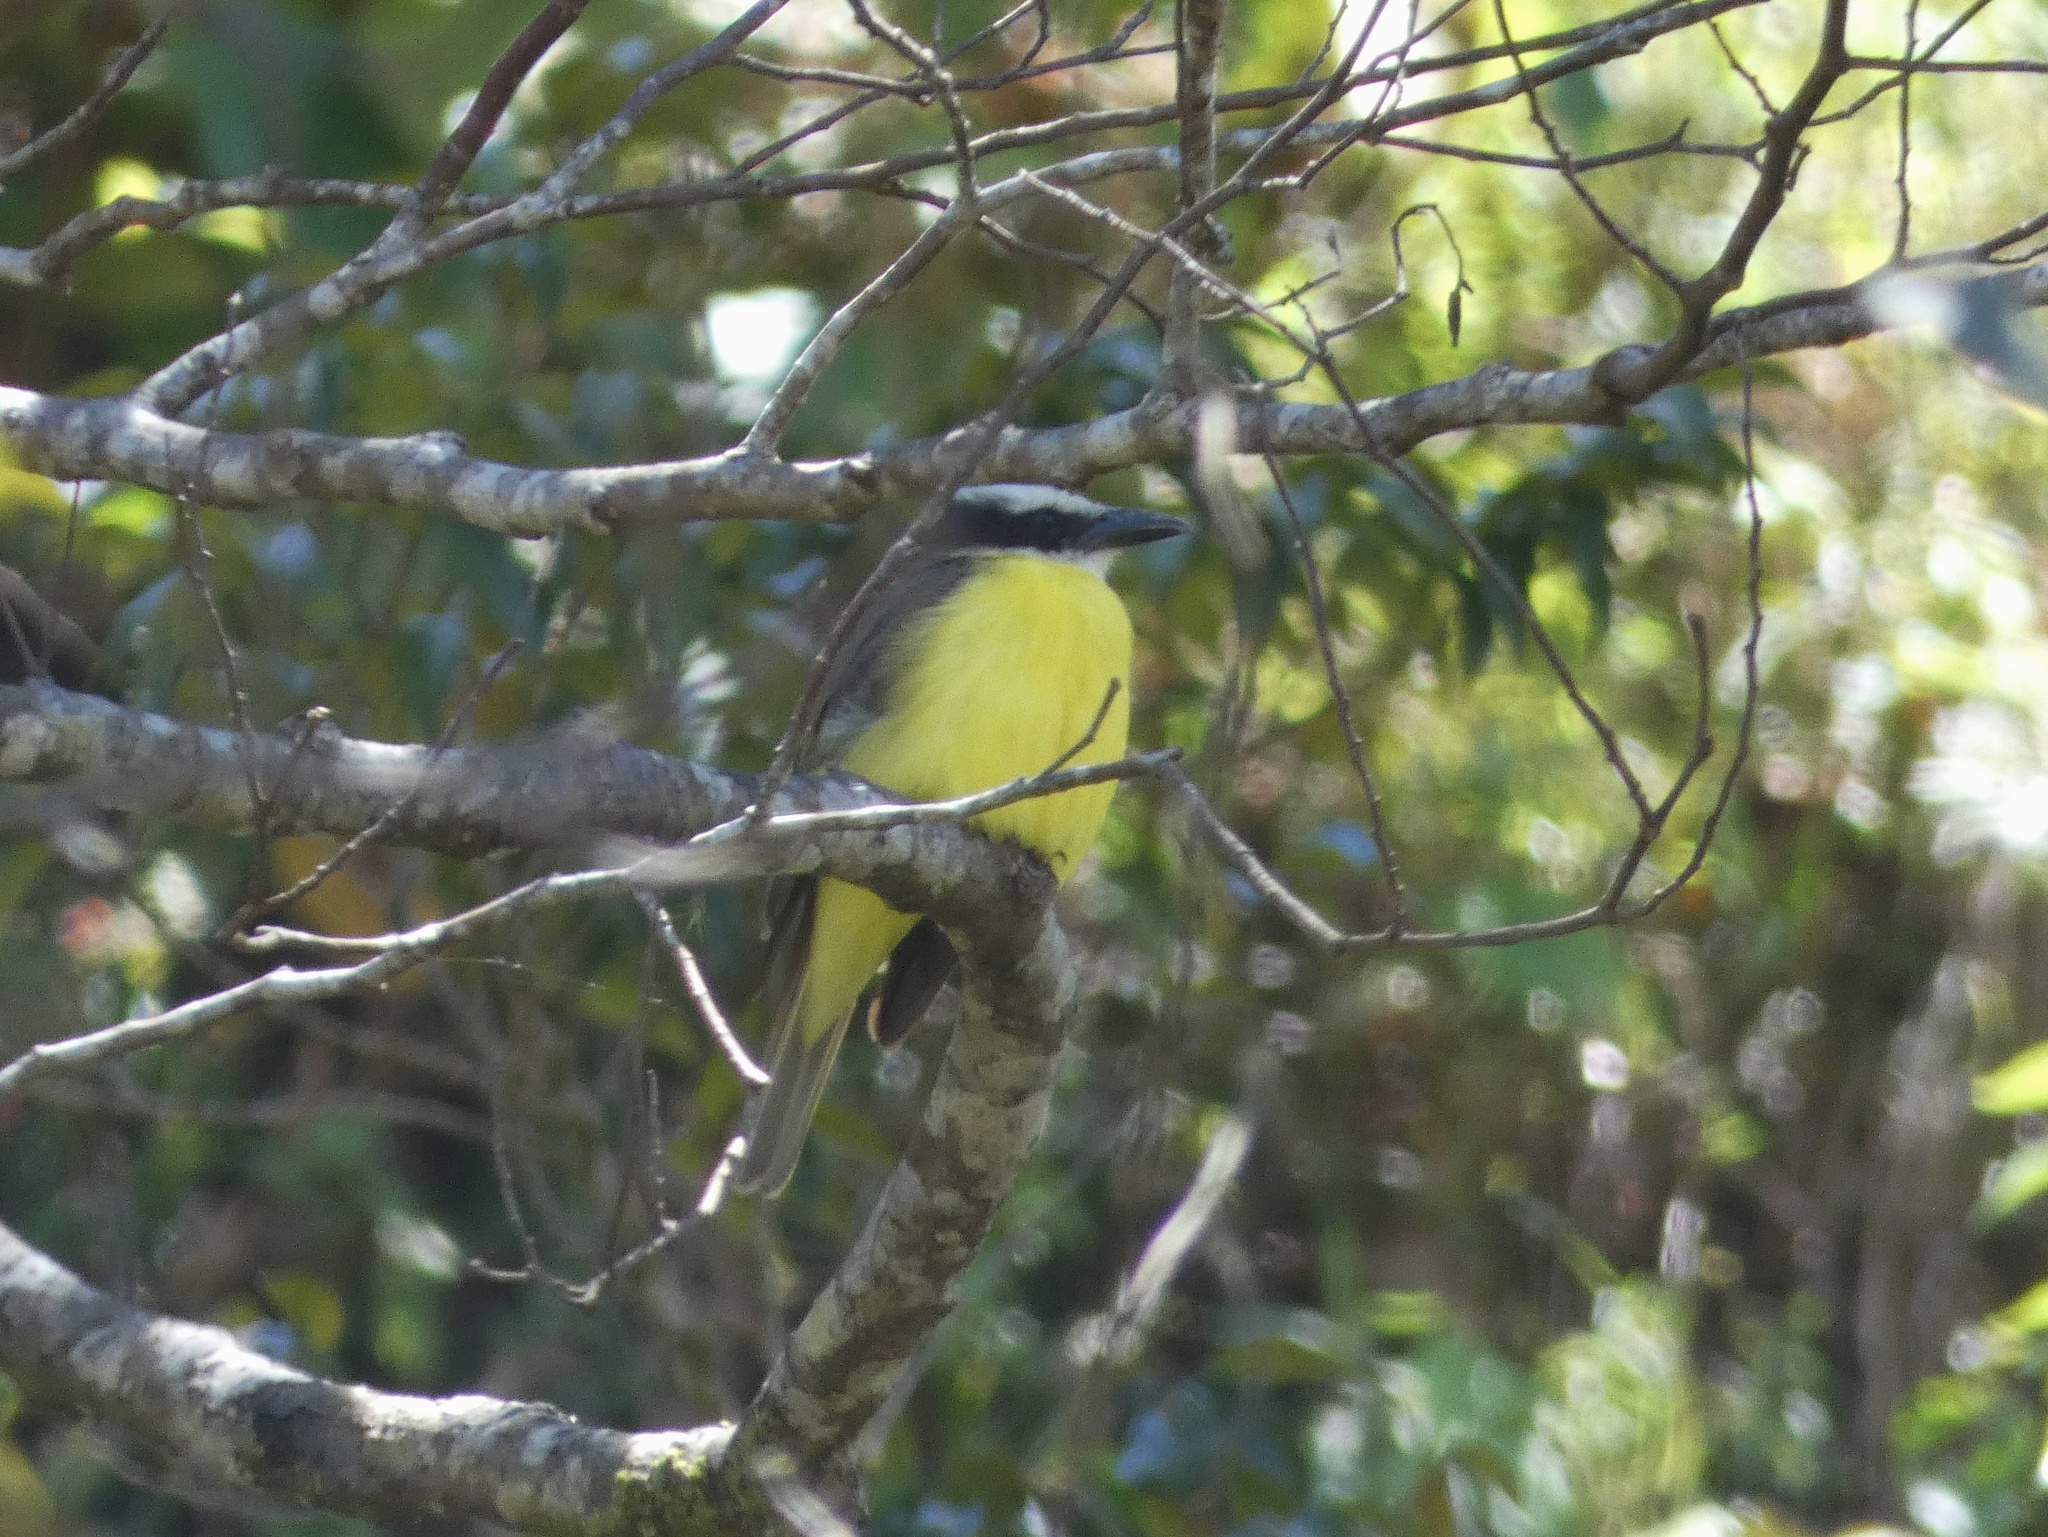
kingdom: Animalia
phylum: Chordata
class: Aves
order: Passeriformes
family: Tyrannidae
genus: Megarynchus
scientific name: Megarynchus pitangua
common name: Boat-billed flycatcher
